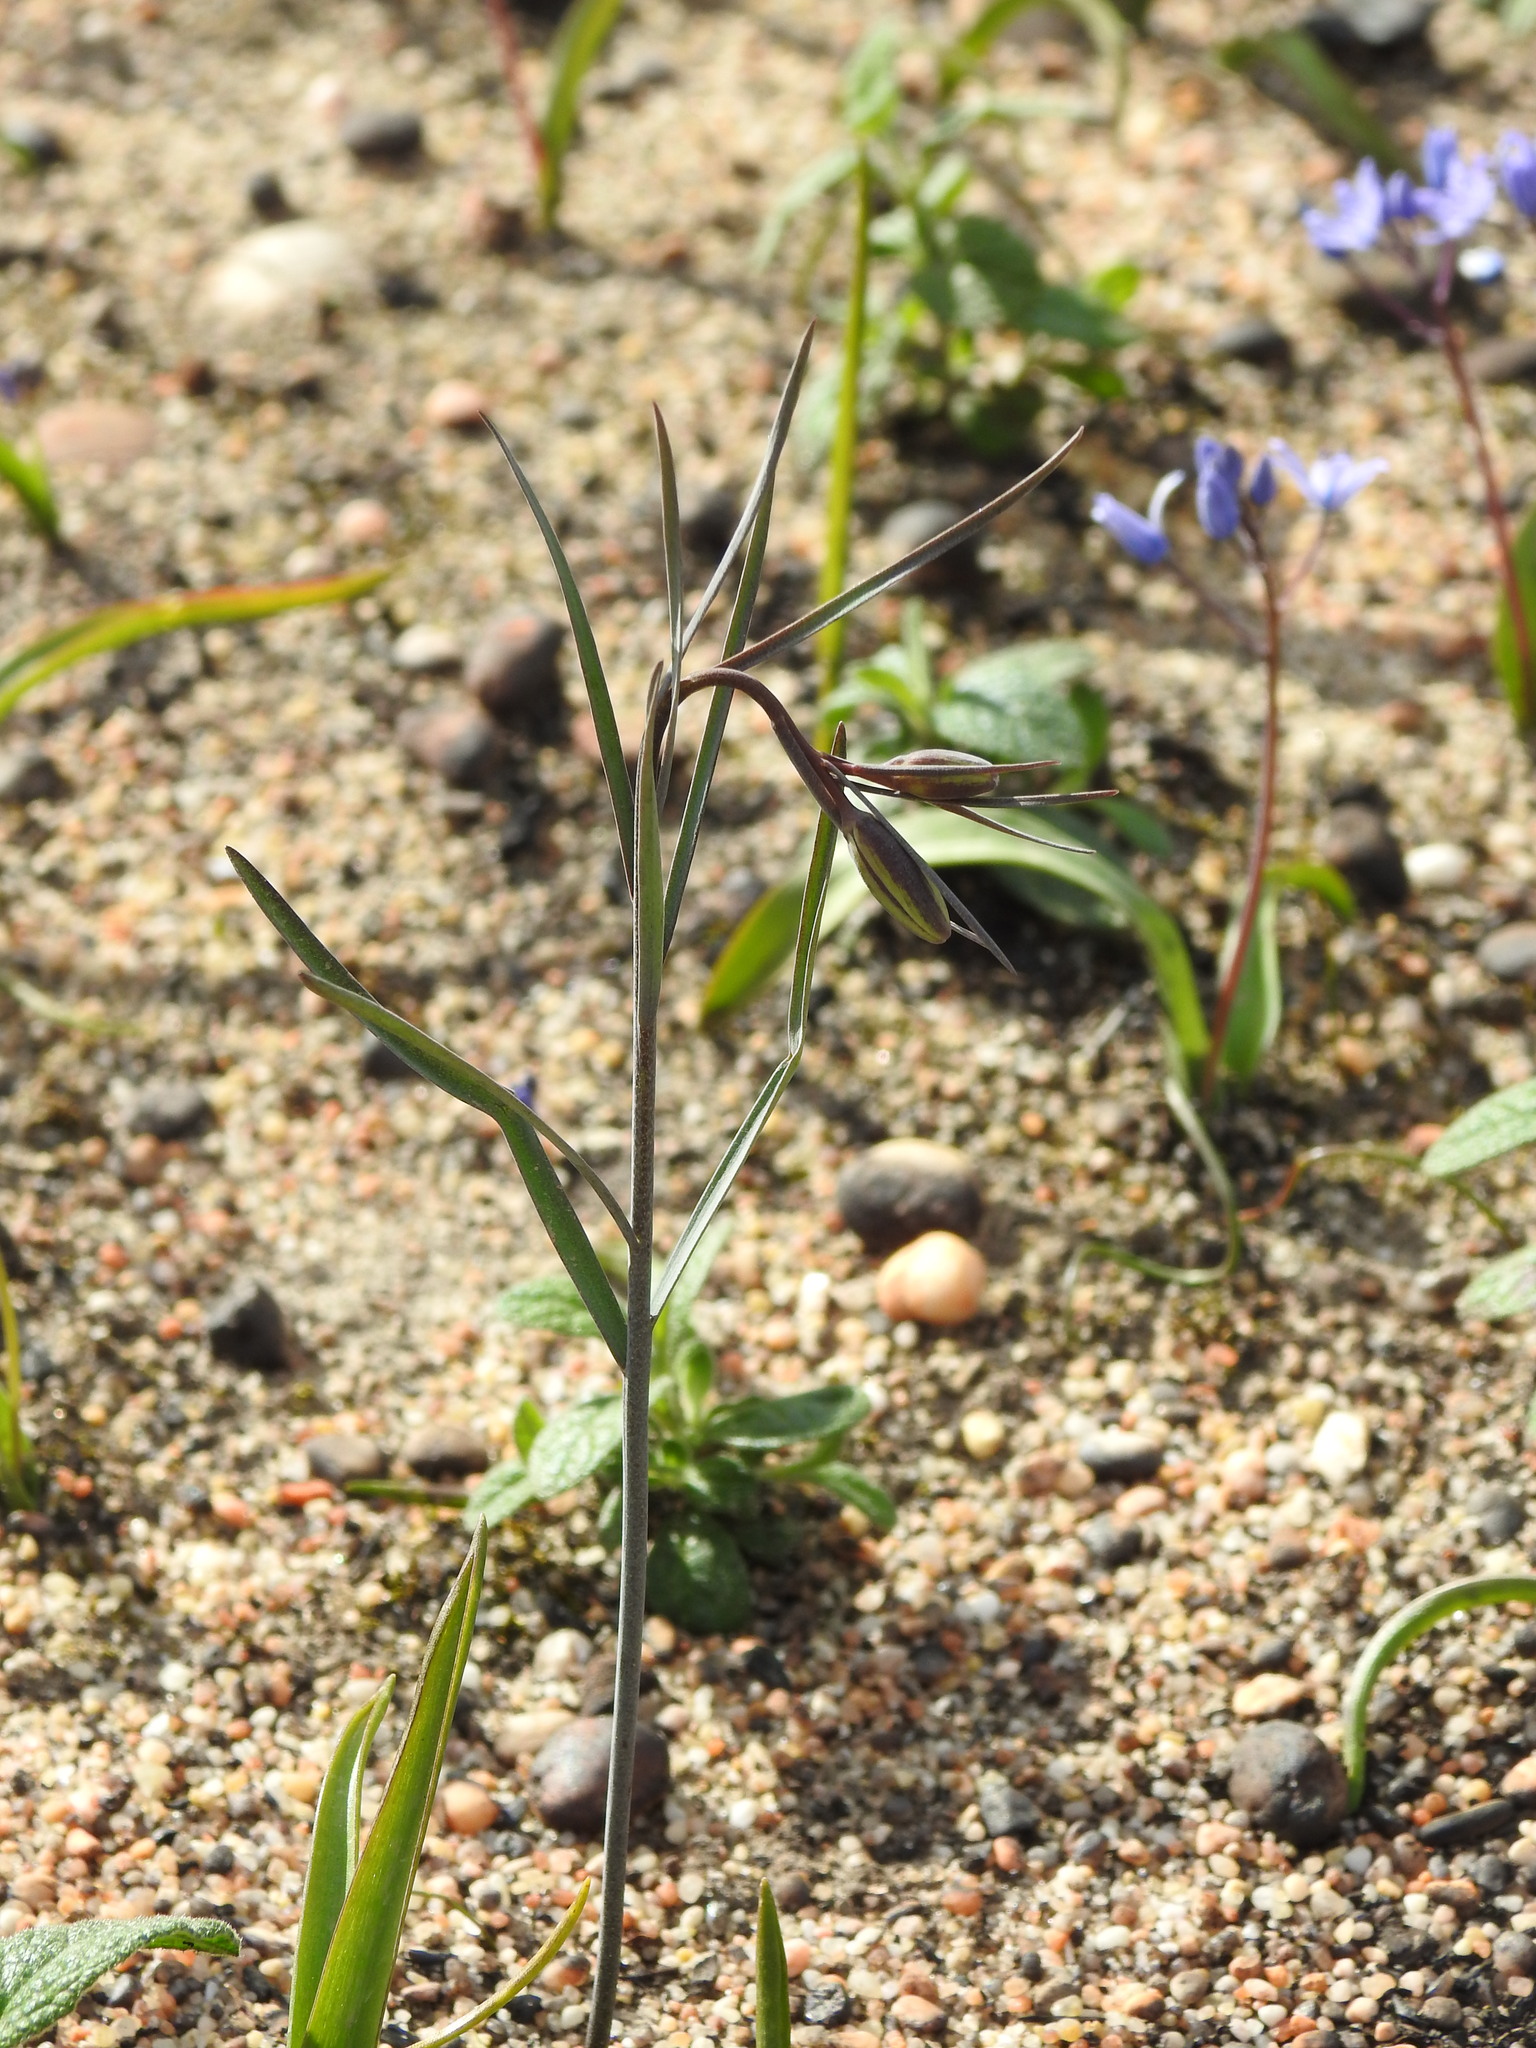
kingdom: Plantae
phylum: Tracheophyta
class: Liliopsida
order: Liliales
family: Liliaceae
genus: Fritillaria
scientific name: Fritillaria lusitanica
